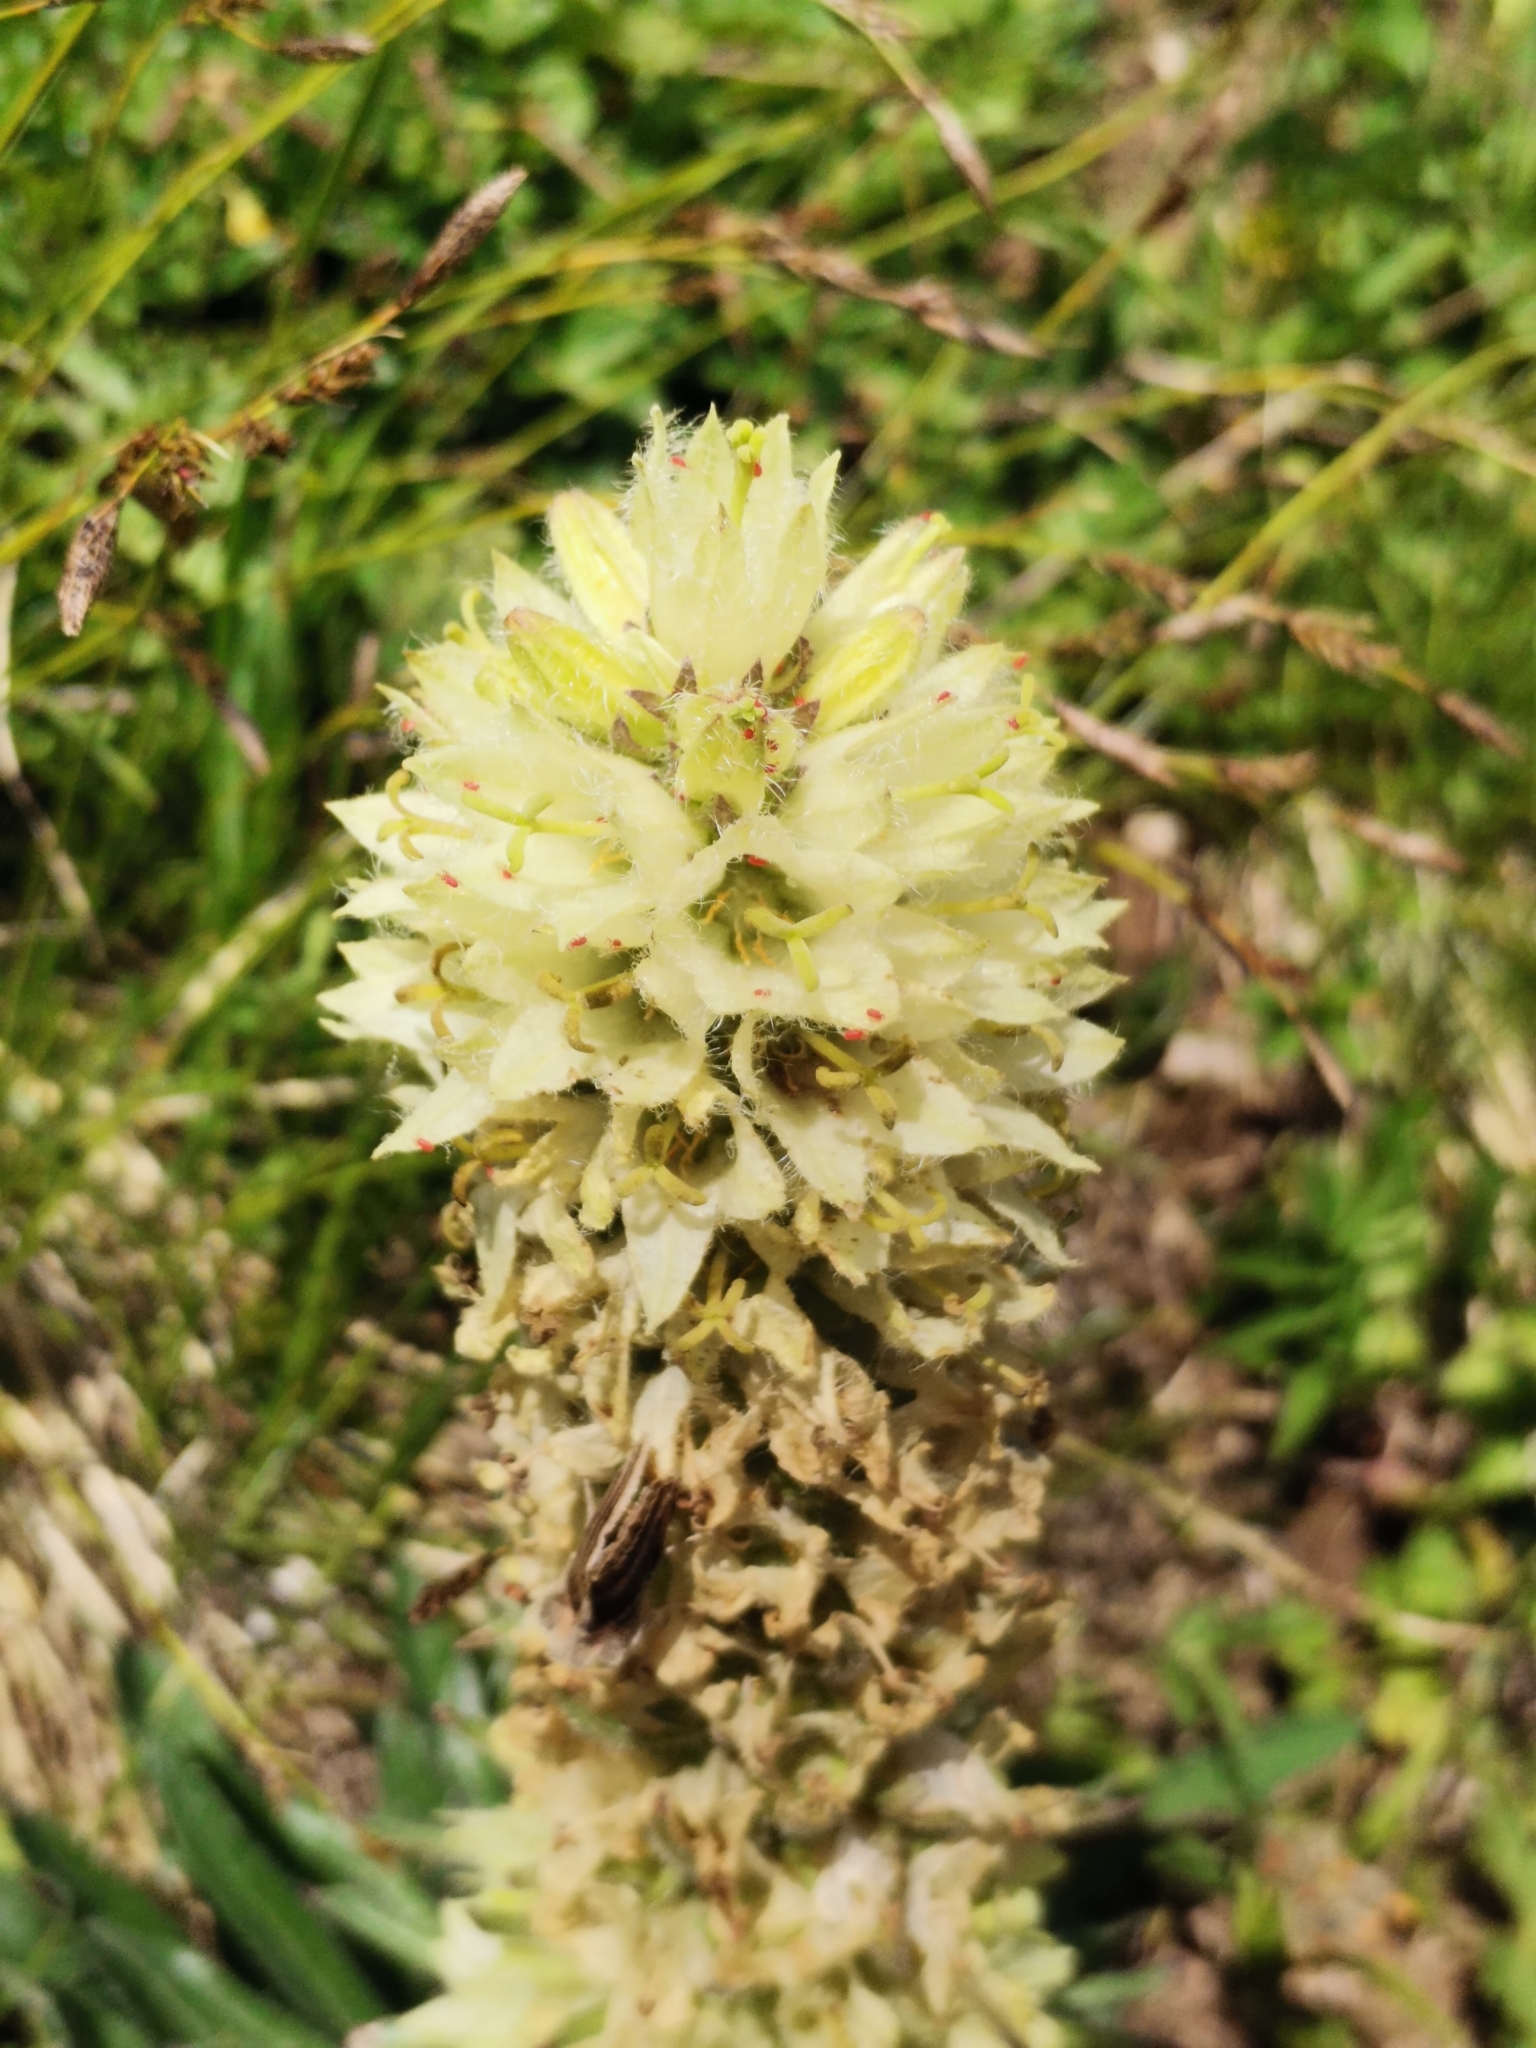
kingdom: Plantae
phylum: Tracheophyta
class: Magnoliopsida
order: Asterales
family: Campanulaceae
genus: Campanula
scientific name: Campanula thyrsoides
